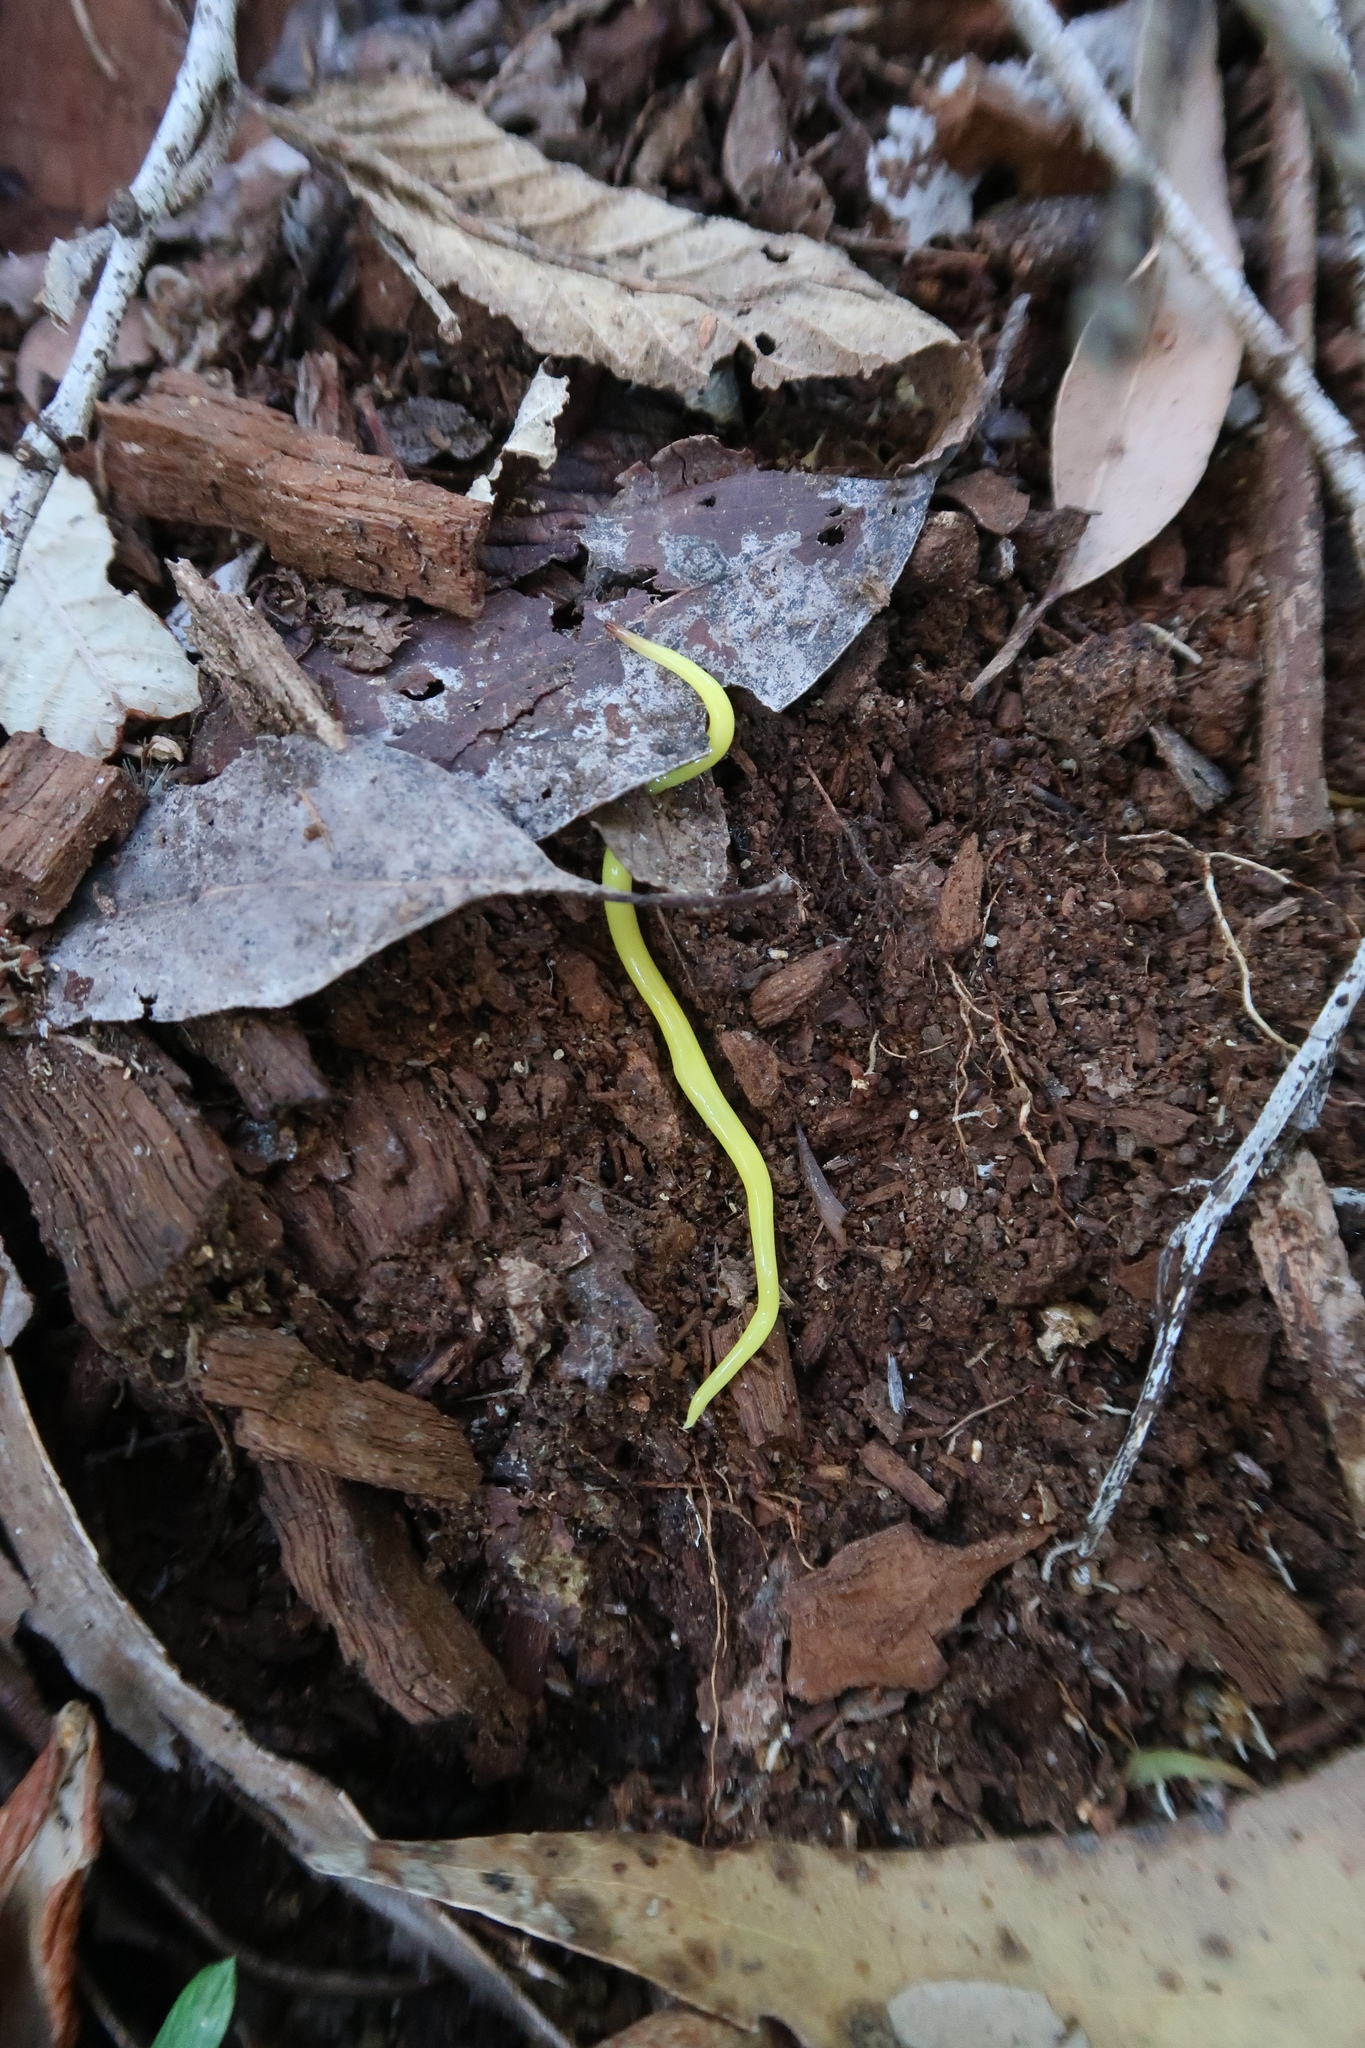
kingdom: Animalia
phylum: Platyhelminthes
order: Tricladida
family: Geoplanidae
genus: Fletchamia
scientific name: Fletchamia sugdeni
